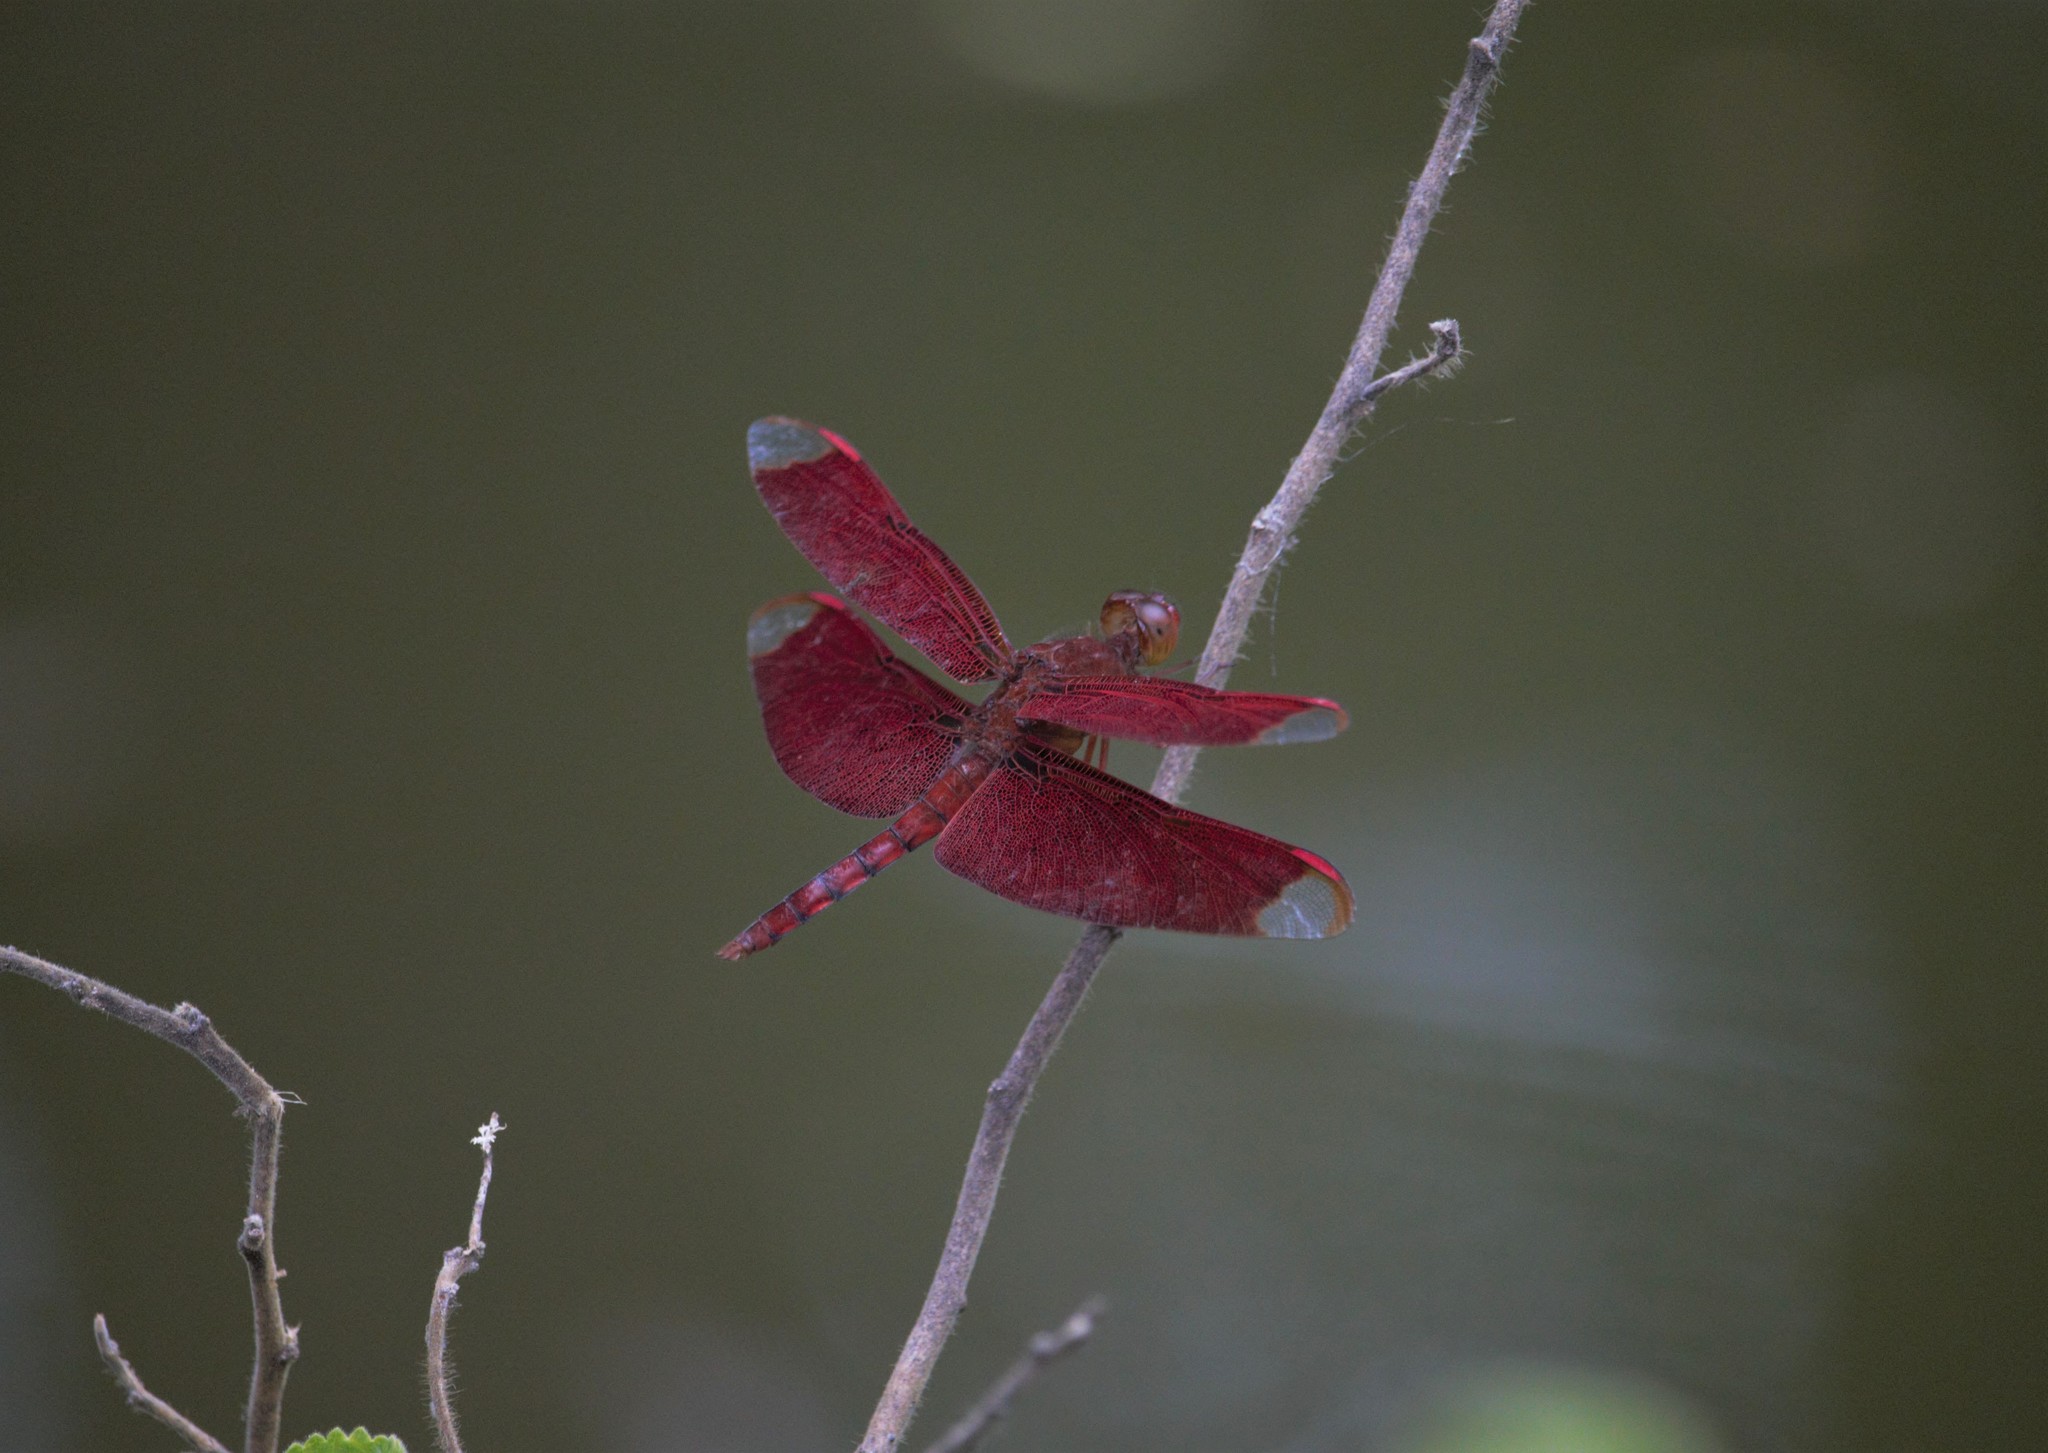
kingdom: Animalia
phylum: Arthropoda
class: Insecta
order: Odonata
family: Libellulidae
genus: Neurothemis
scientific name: Neurothemis fulvia
